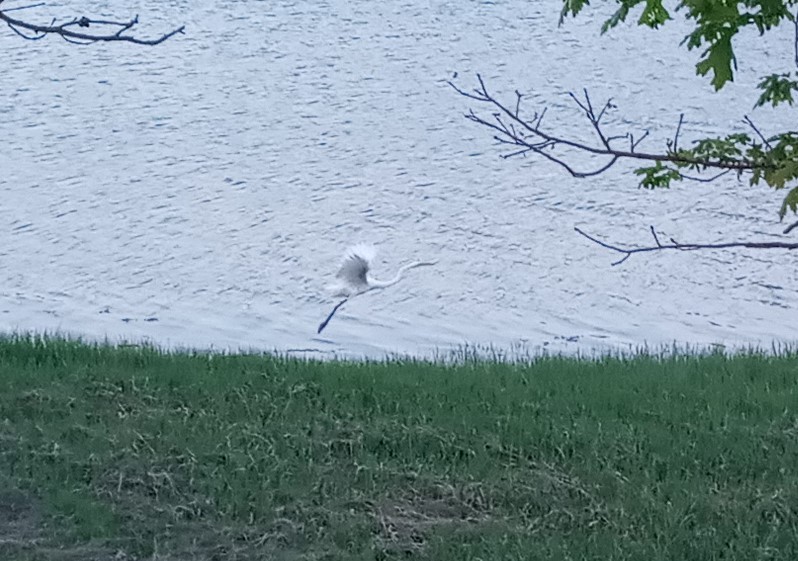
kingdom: Animalia
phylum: Chordata
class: Aves
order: Pelecaniformes
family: Ardeidae
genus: Ardea
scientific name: Ardea alba
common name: Great egret
